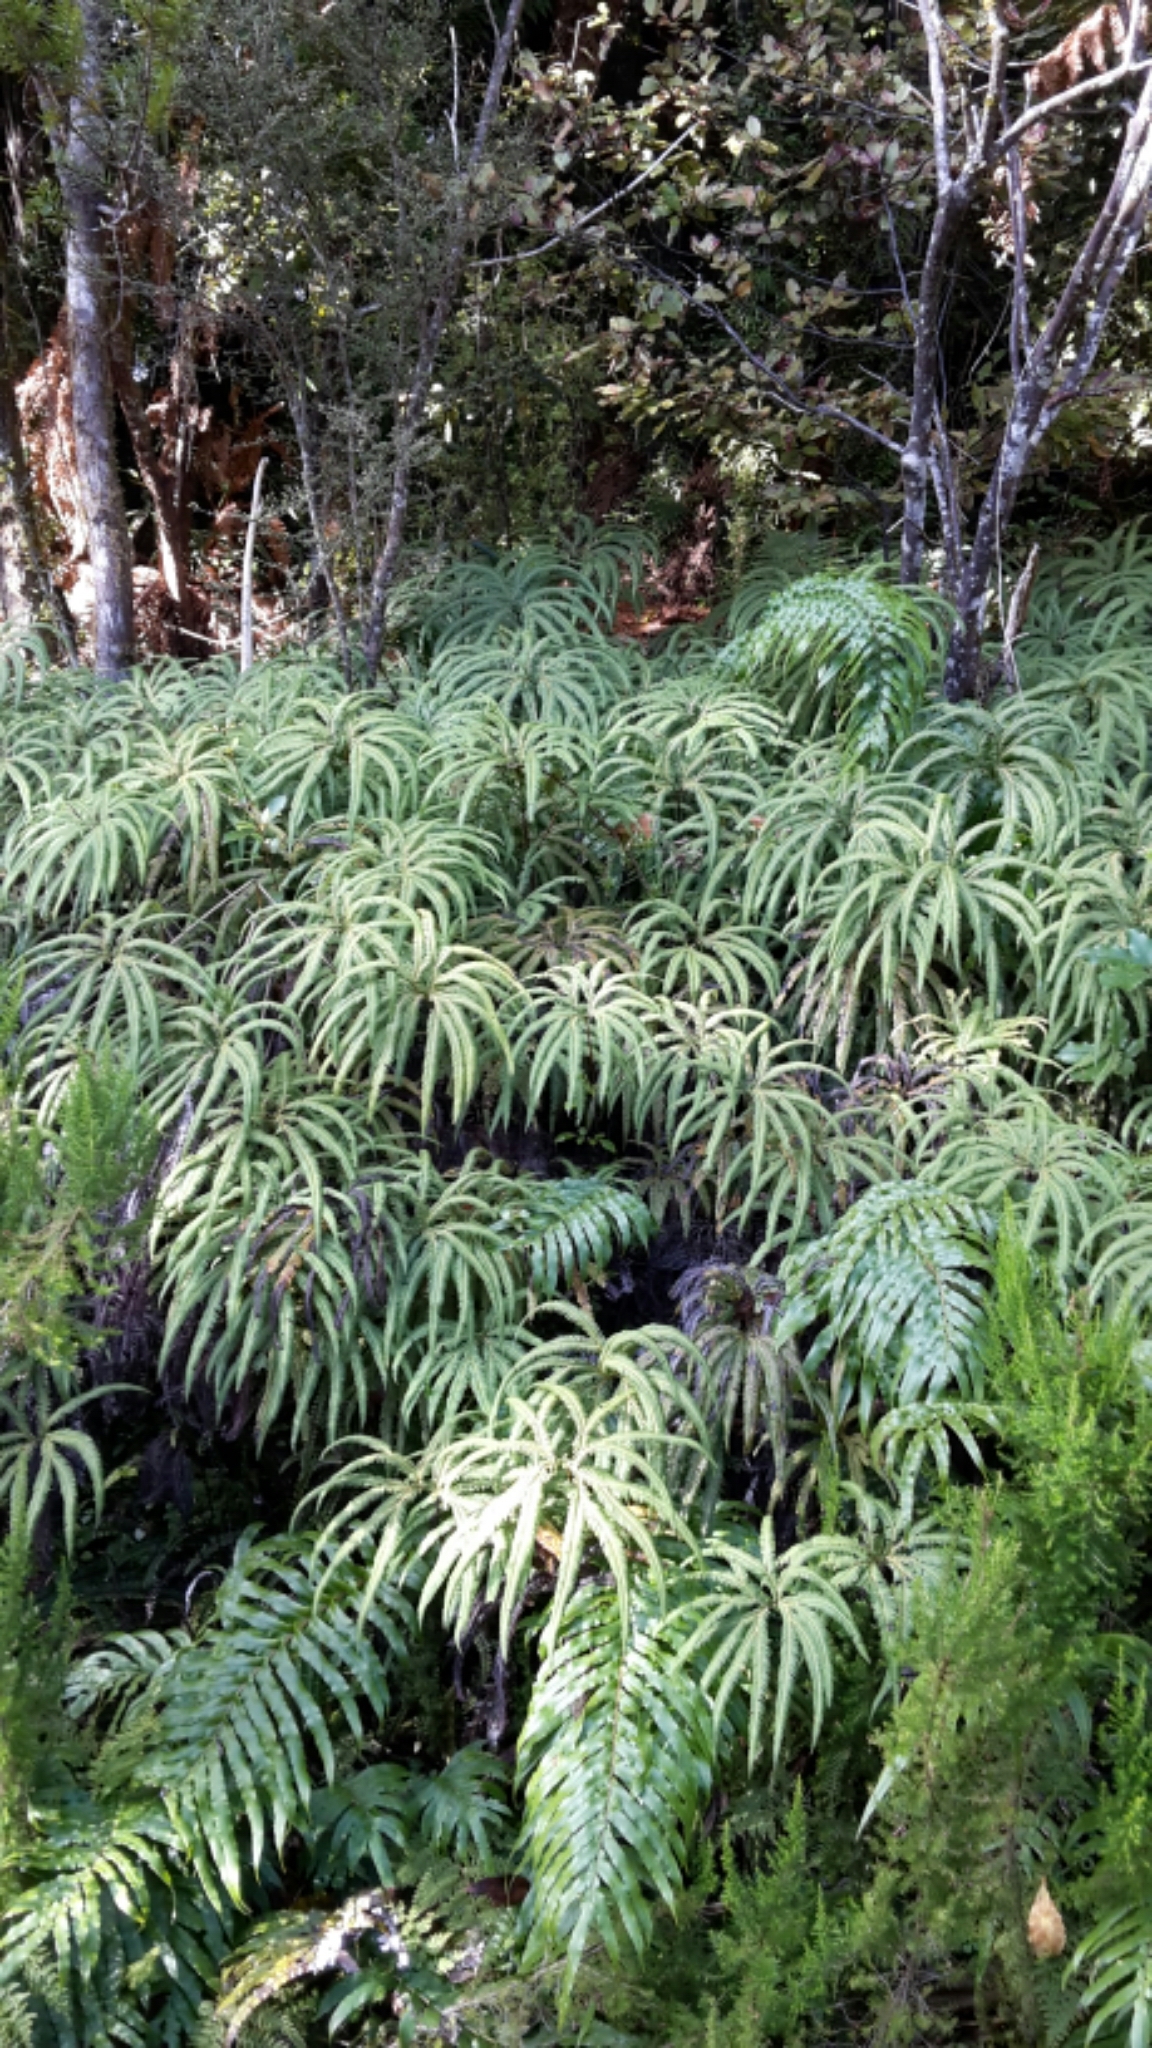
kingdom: Plantae
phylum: Tracheophyta
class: Polypodiopsida
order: Gleicheniales
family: Gleicheniaceae
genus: Sticherus
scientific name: Sticherus cunninghamii
